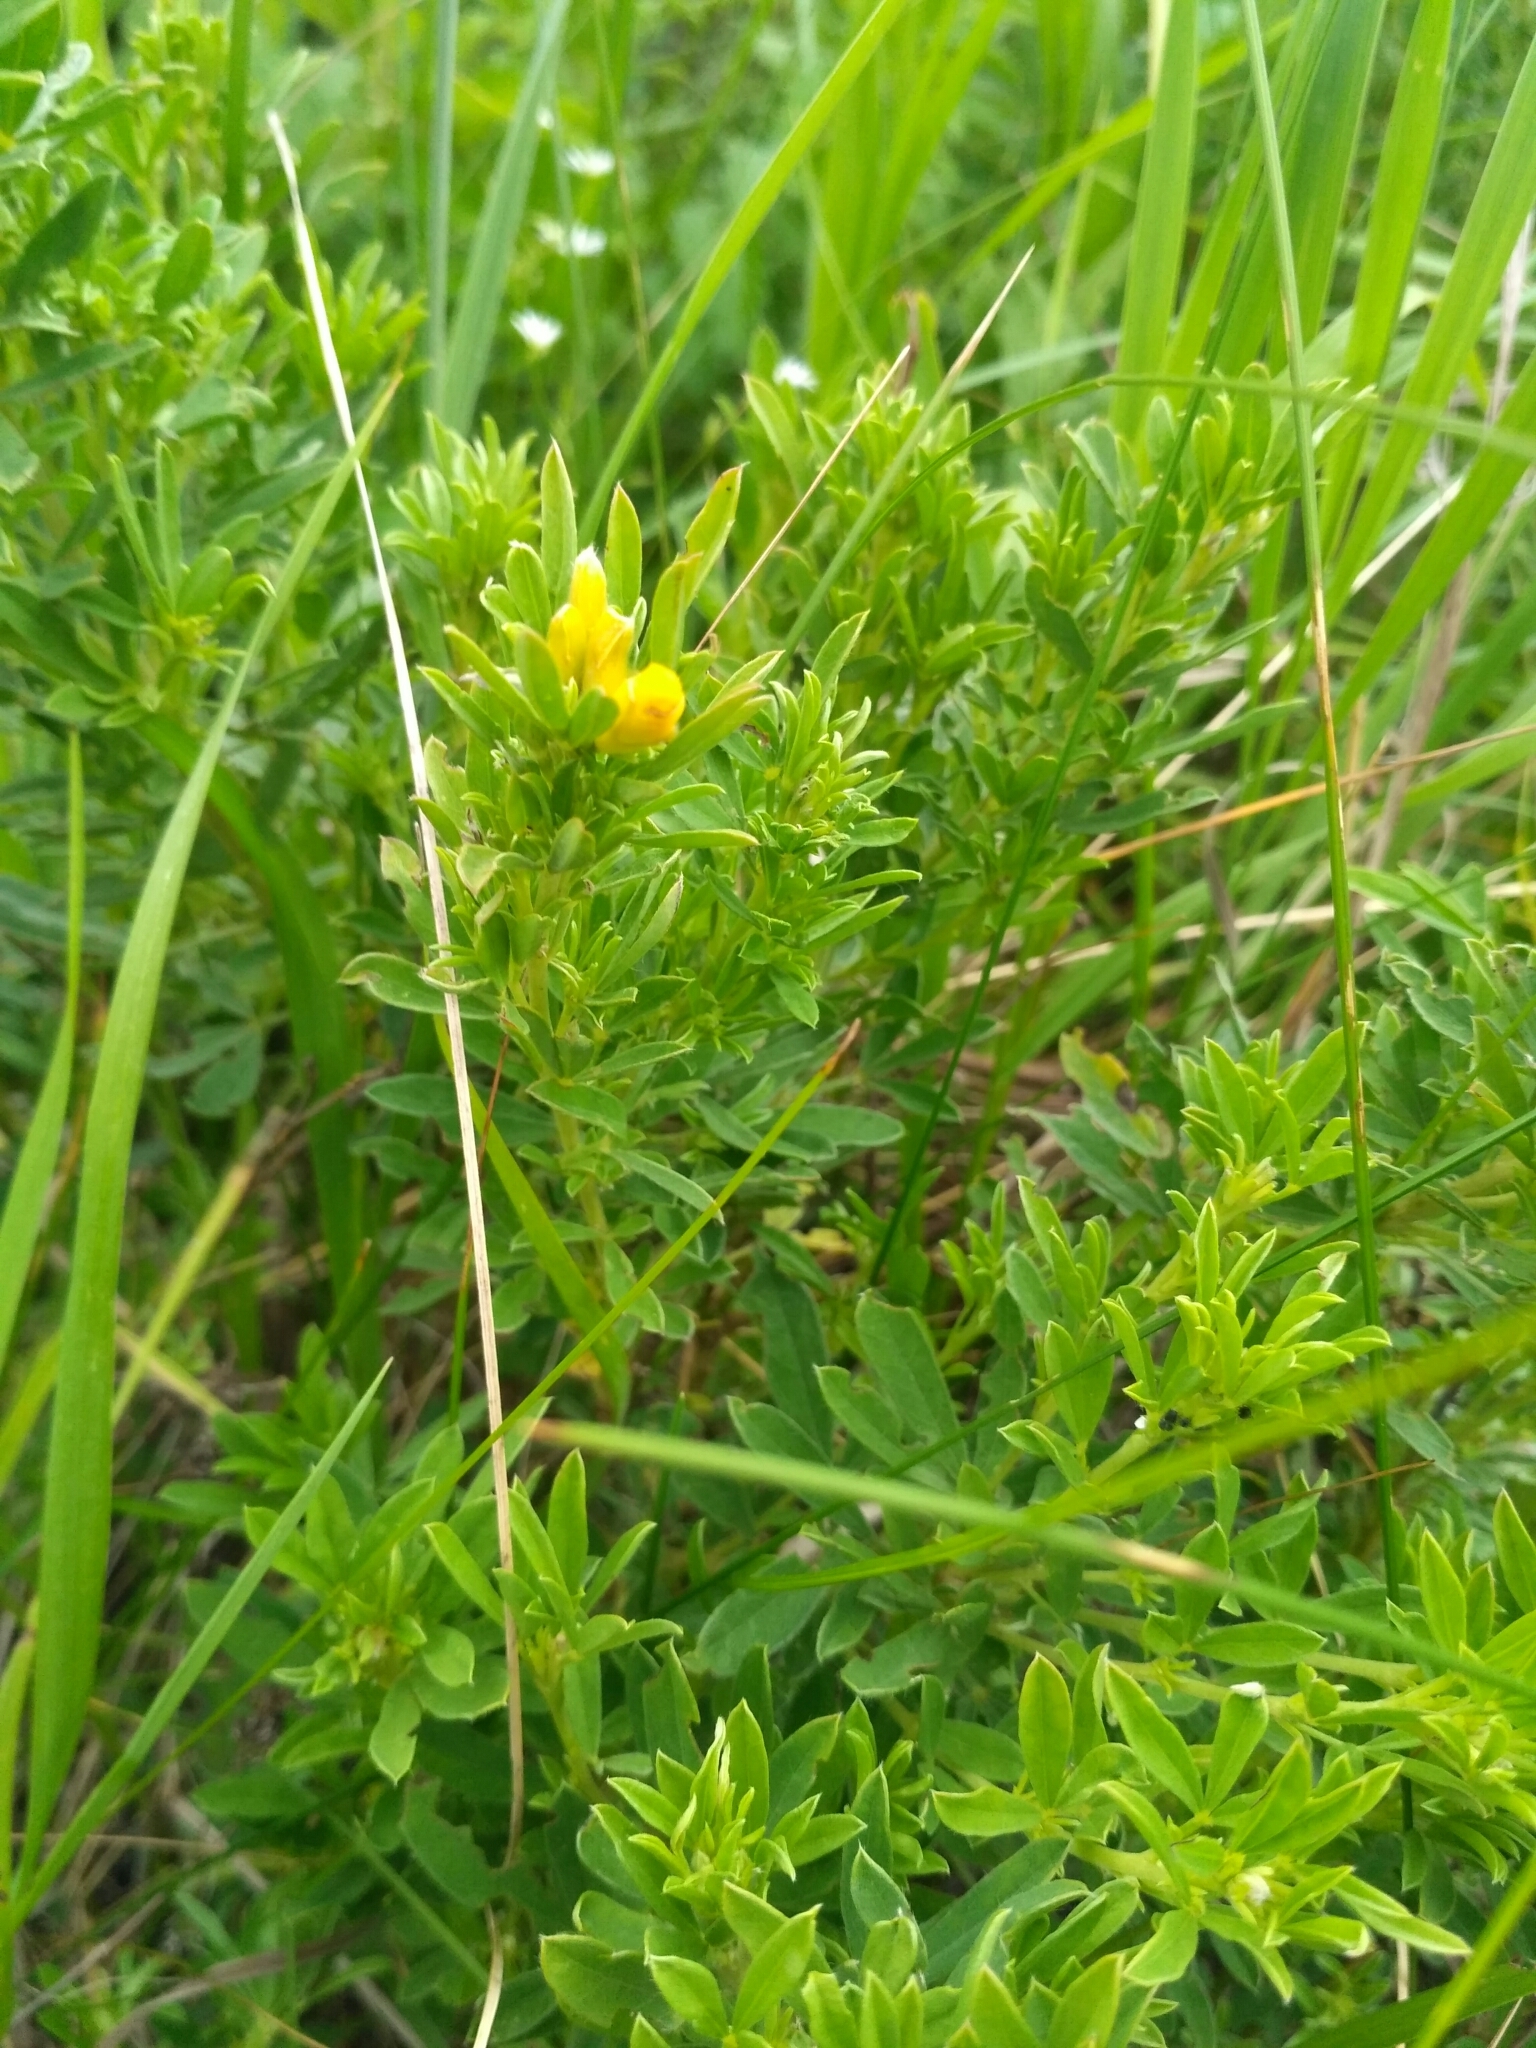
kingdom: Plantae
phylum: Tracheophyta
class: Magnoliopsida
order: Fabales
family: Fabaceae
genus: Chamaecytisus
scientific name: Chamaecytisus austriacus
